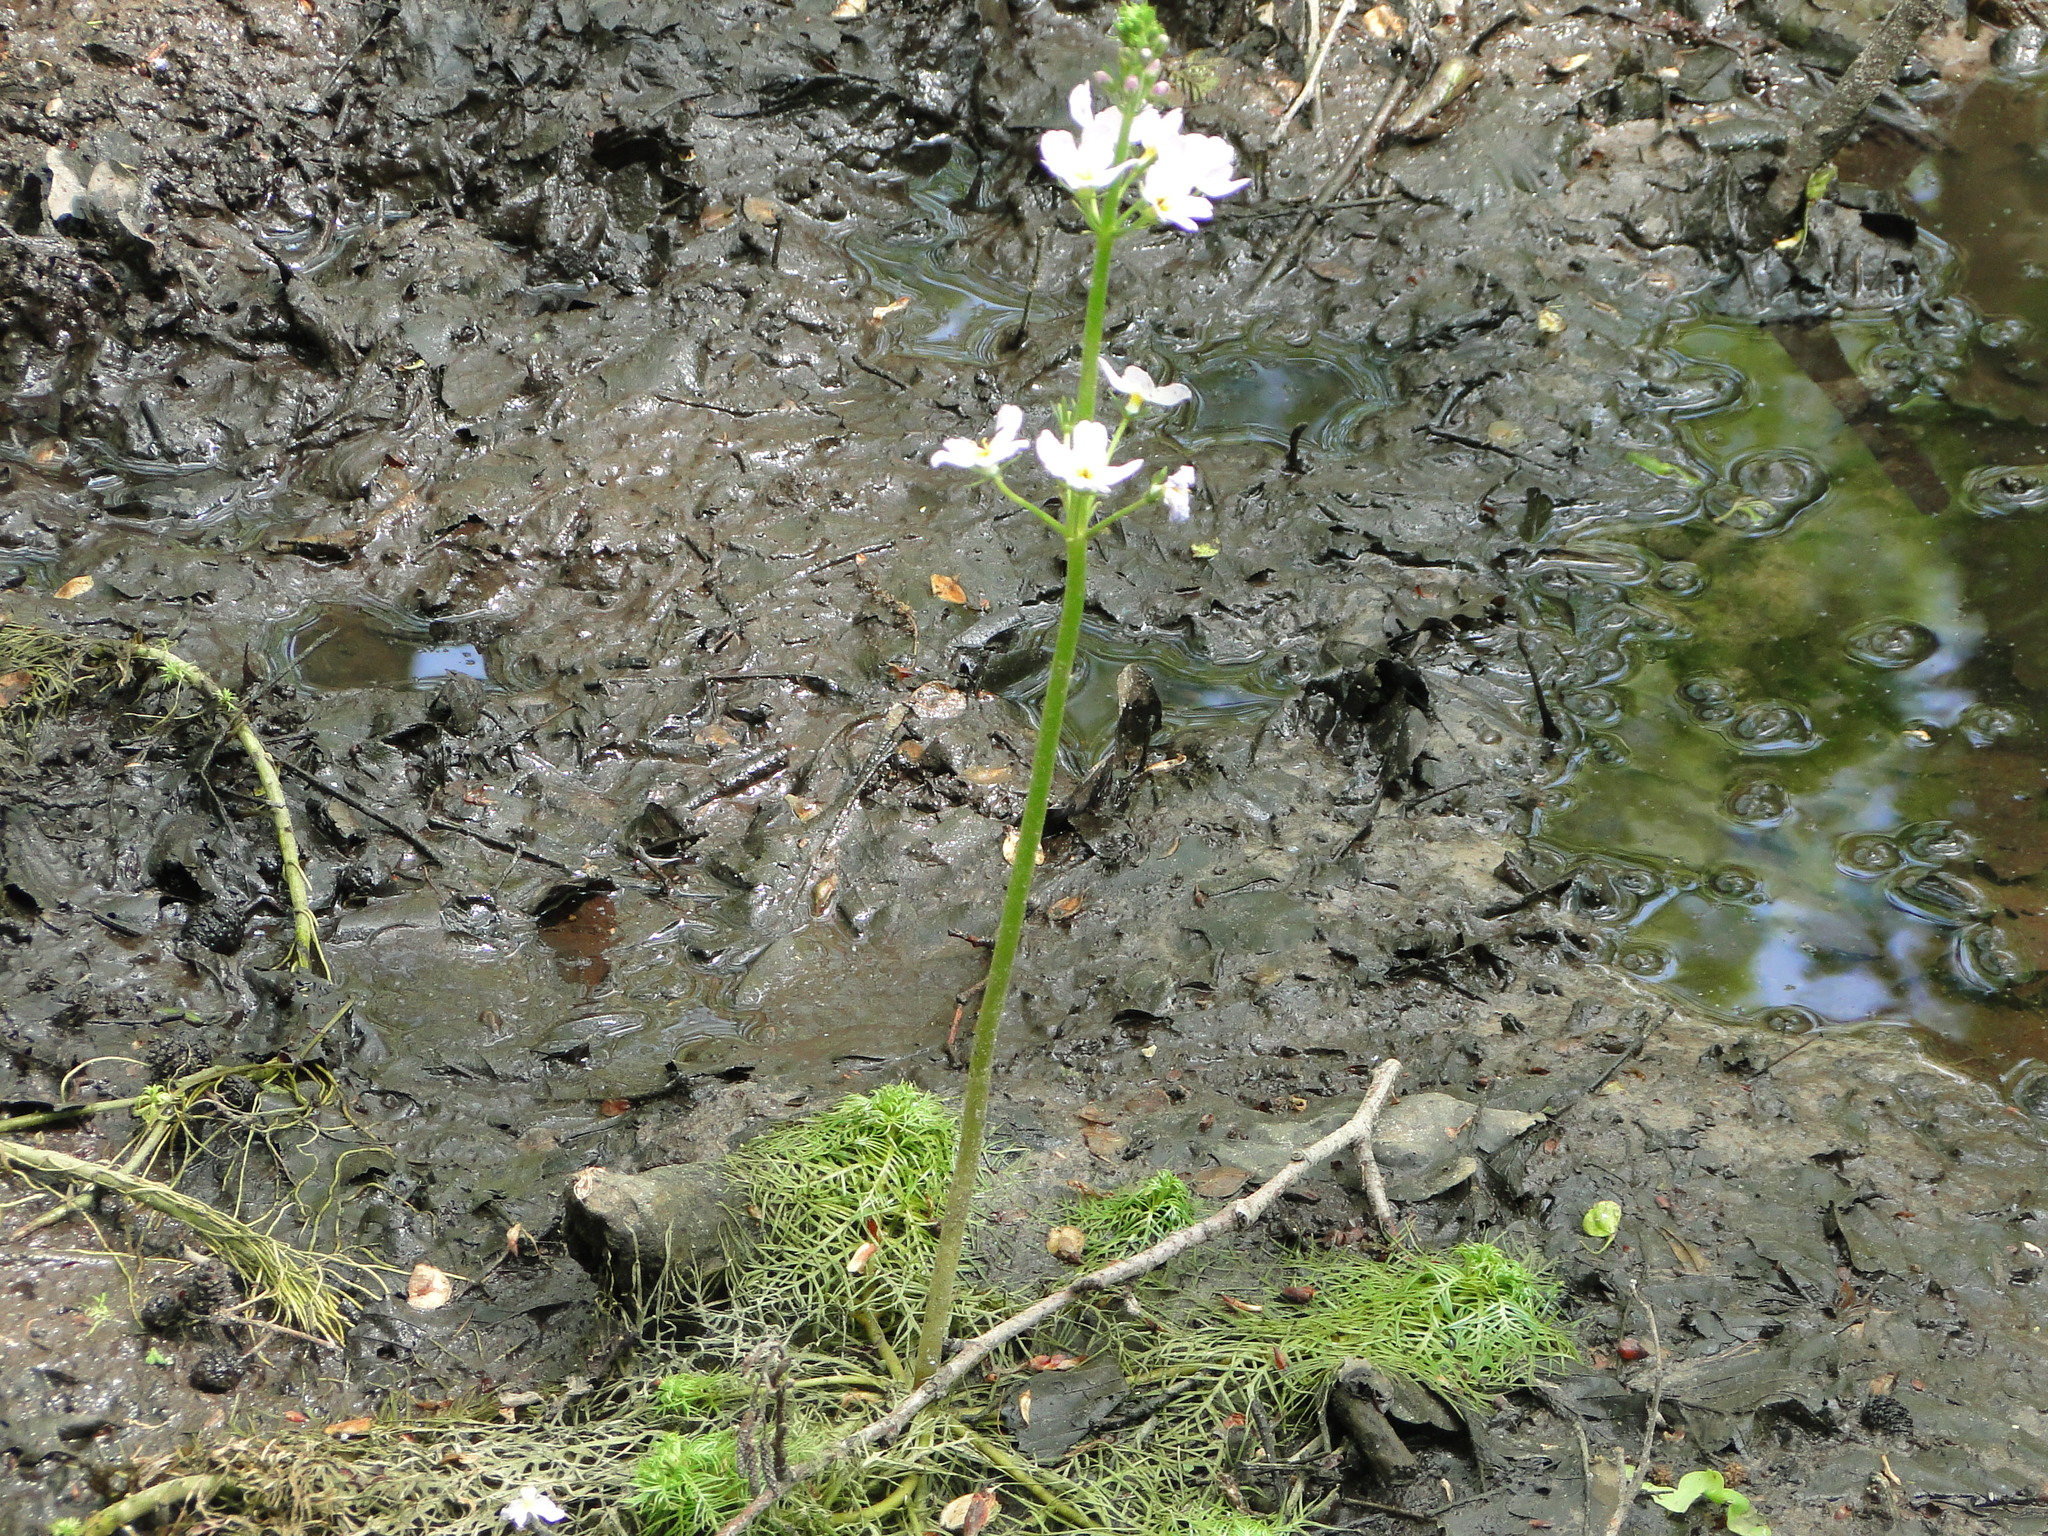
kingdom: Plantae
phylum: Tracheophyta
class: Magnoliopsida
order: Ericales
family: Primulaceae
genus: Hottonia
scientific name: Hottonia palustris
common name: Water-violet
